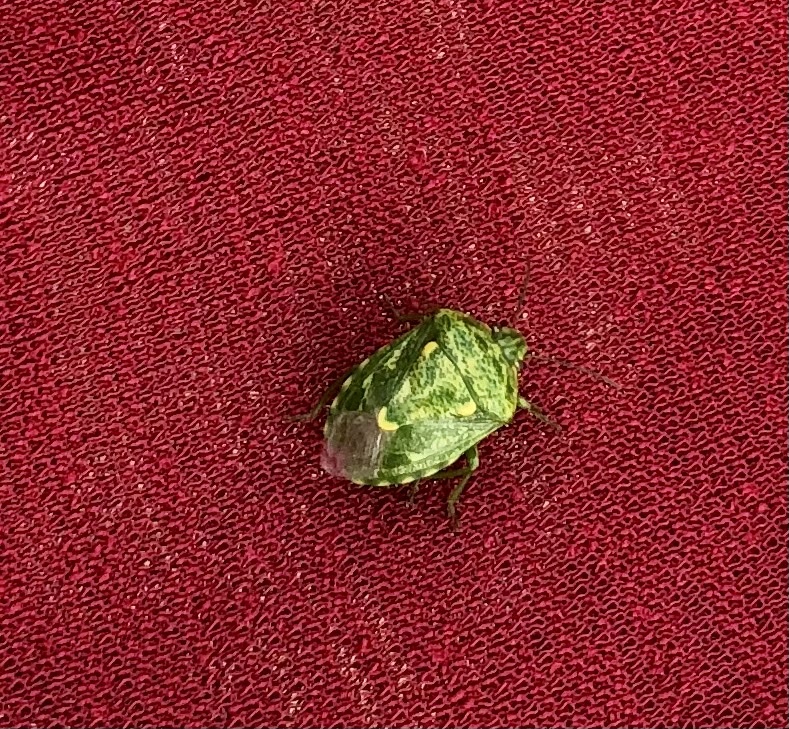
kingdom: Animalia
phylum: Arthropoda
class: Insecta
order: Hemiptera
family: Pentatomidae
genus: Banasa
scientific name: Banasa euchlora
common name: Cedar berry bug
